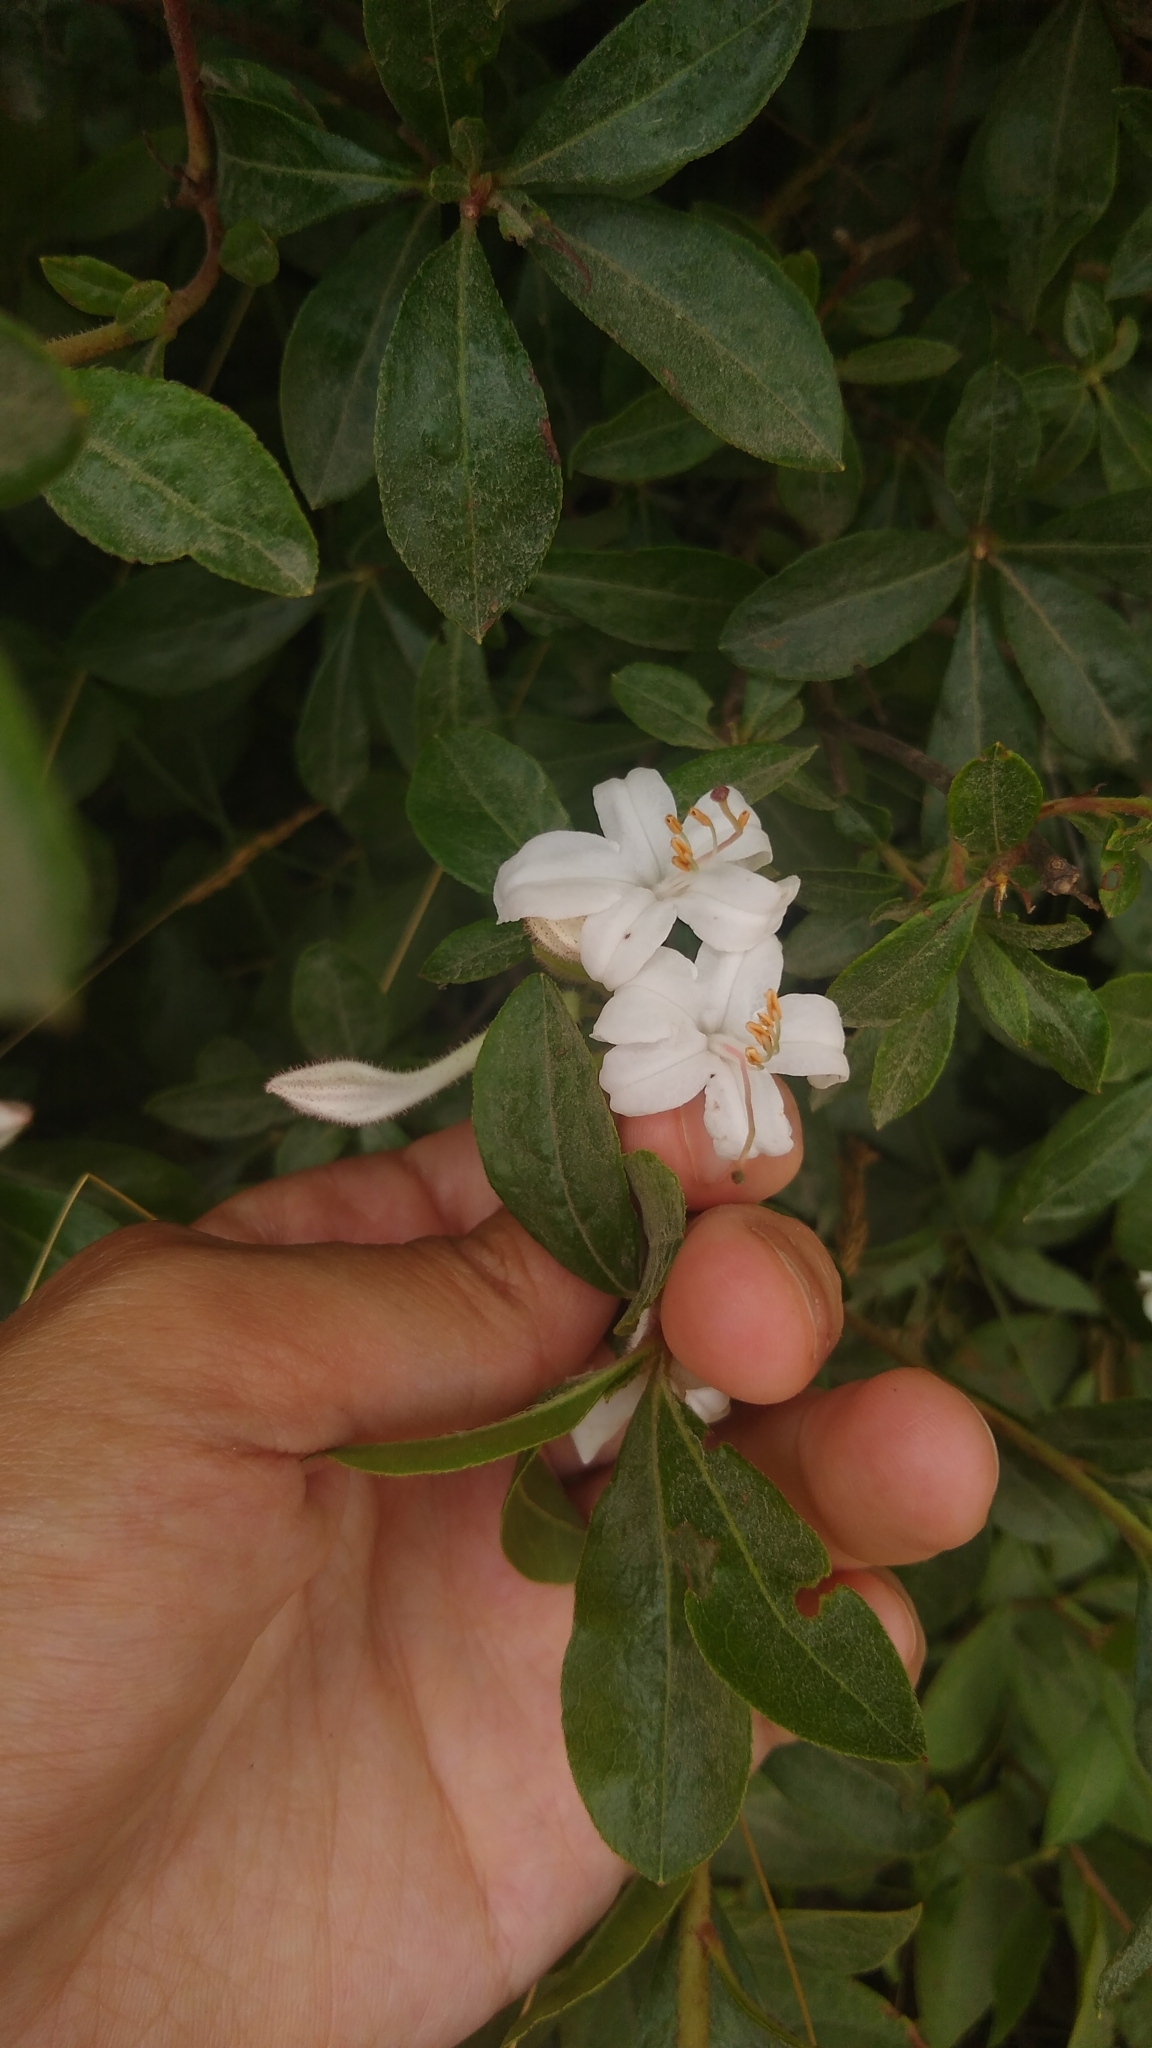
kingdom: Plantae
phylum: Tracheophyta
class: Magnoliopsida
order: Ericales
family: Ericaceae
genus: Rhododendron
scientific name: Rhododendron viscosum
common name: Clammy azalea
